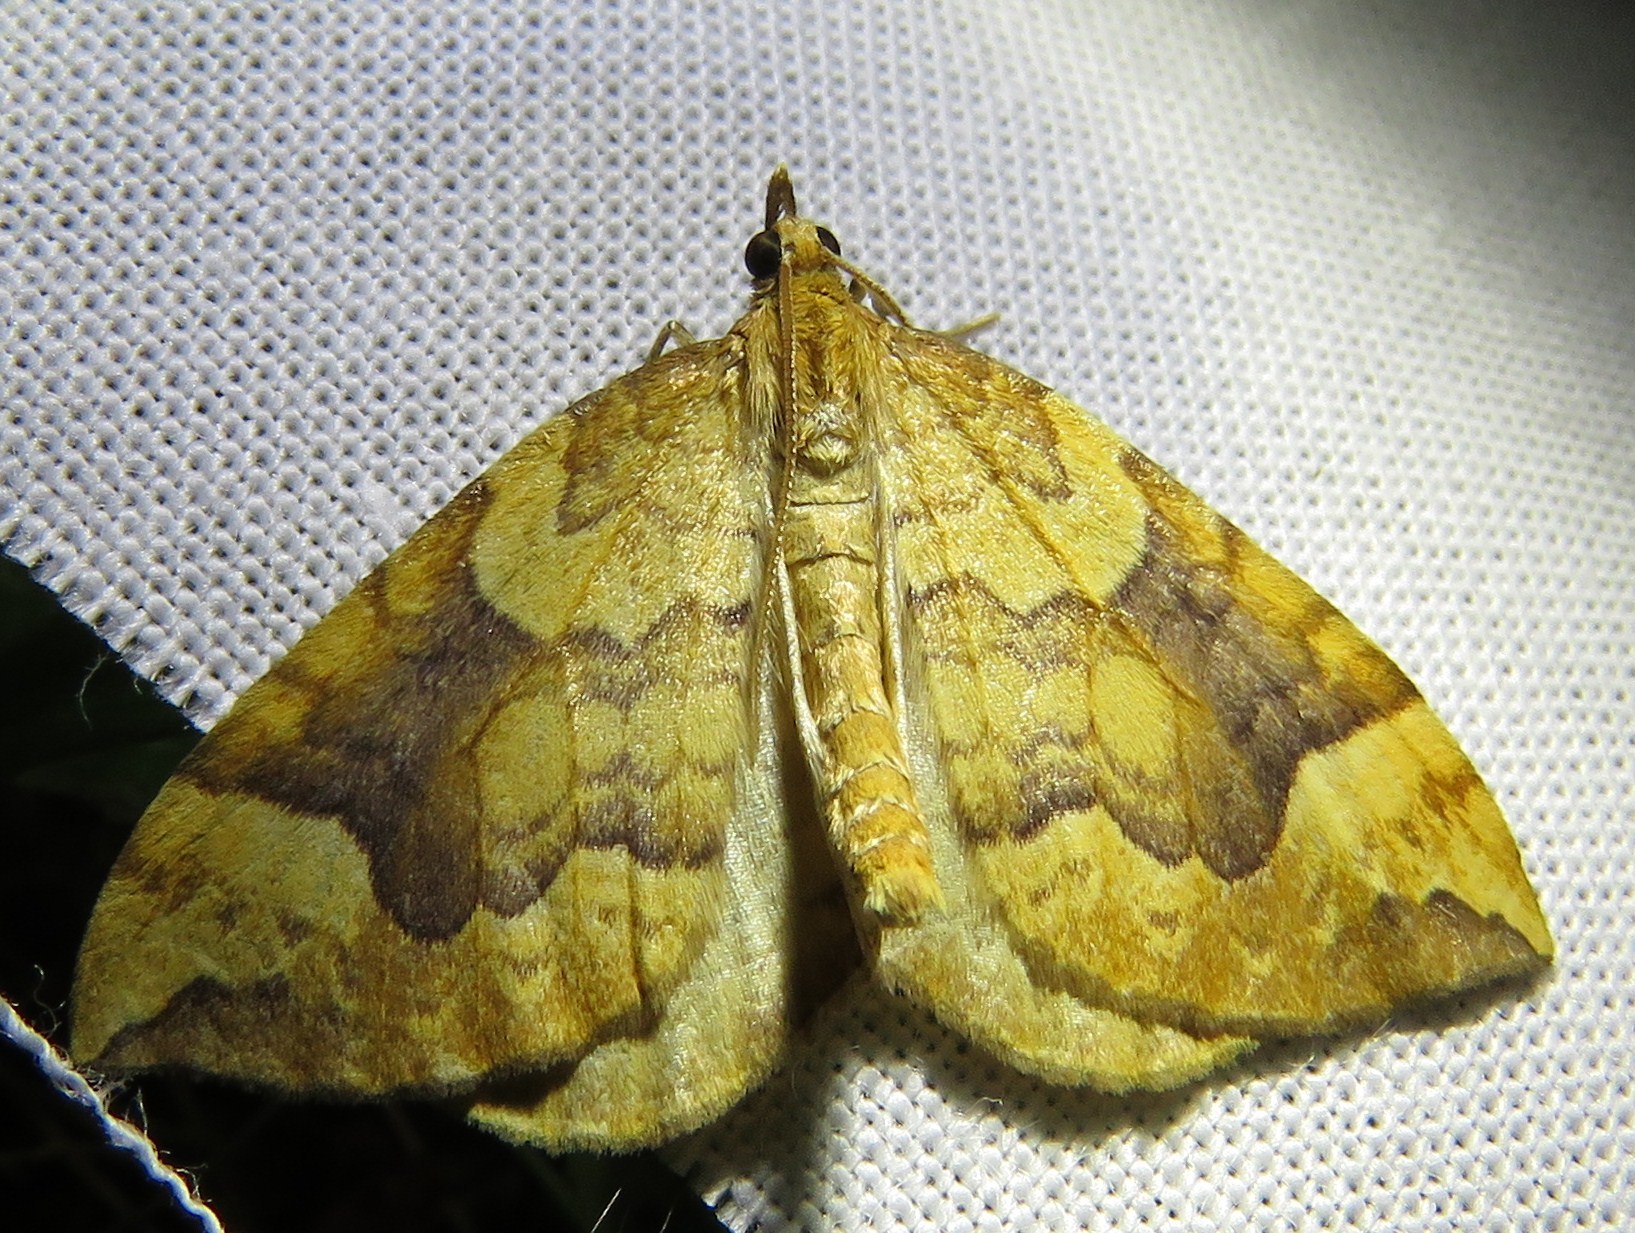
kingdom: Animalia
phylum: Arthropoda
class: Insecta
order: Lepidoptera
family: Geometridae
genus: Eulithis
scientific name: Eulithis populata
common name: Northern spinach
